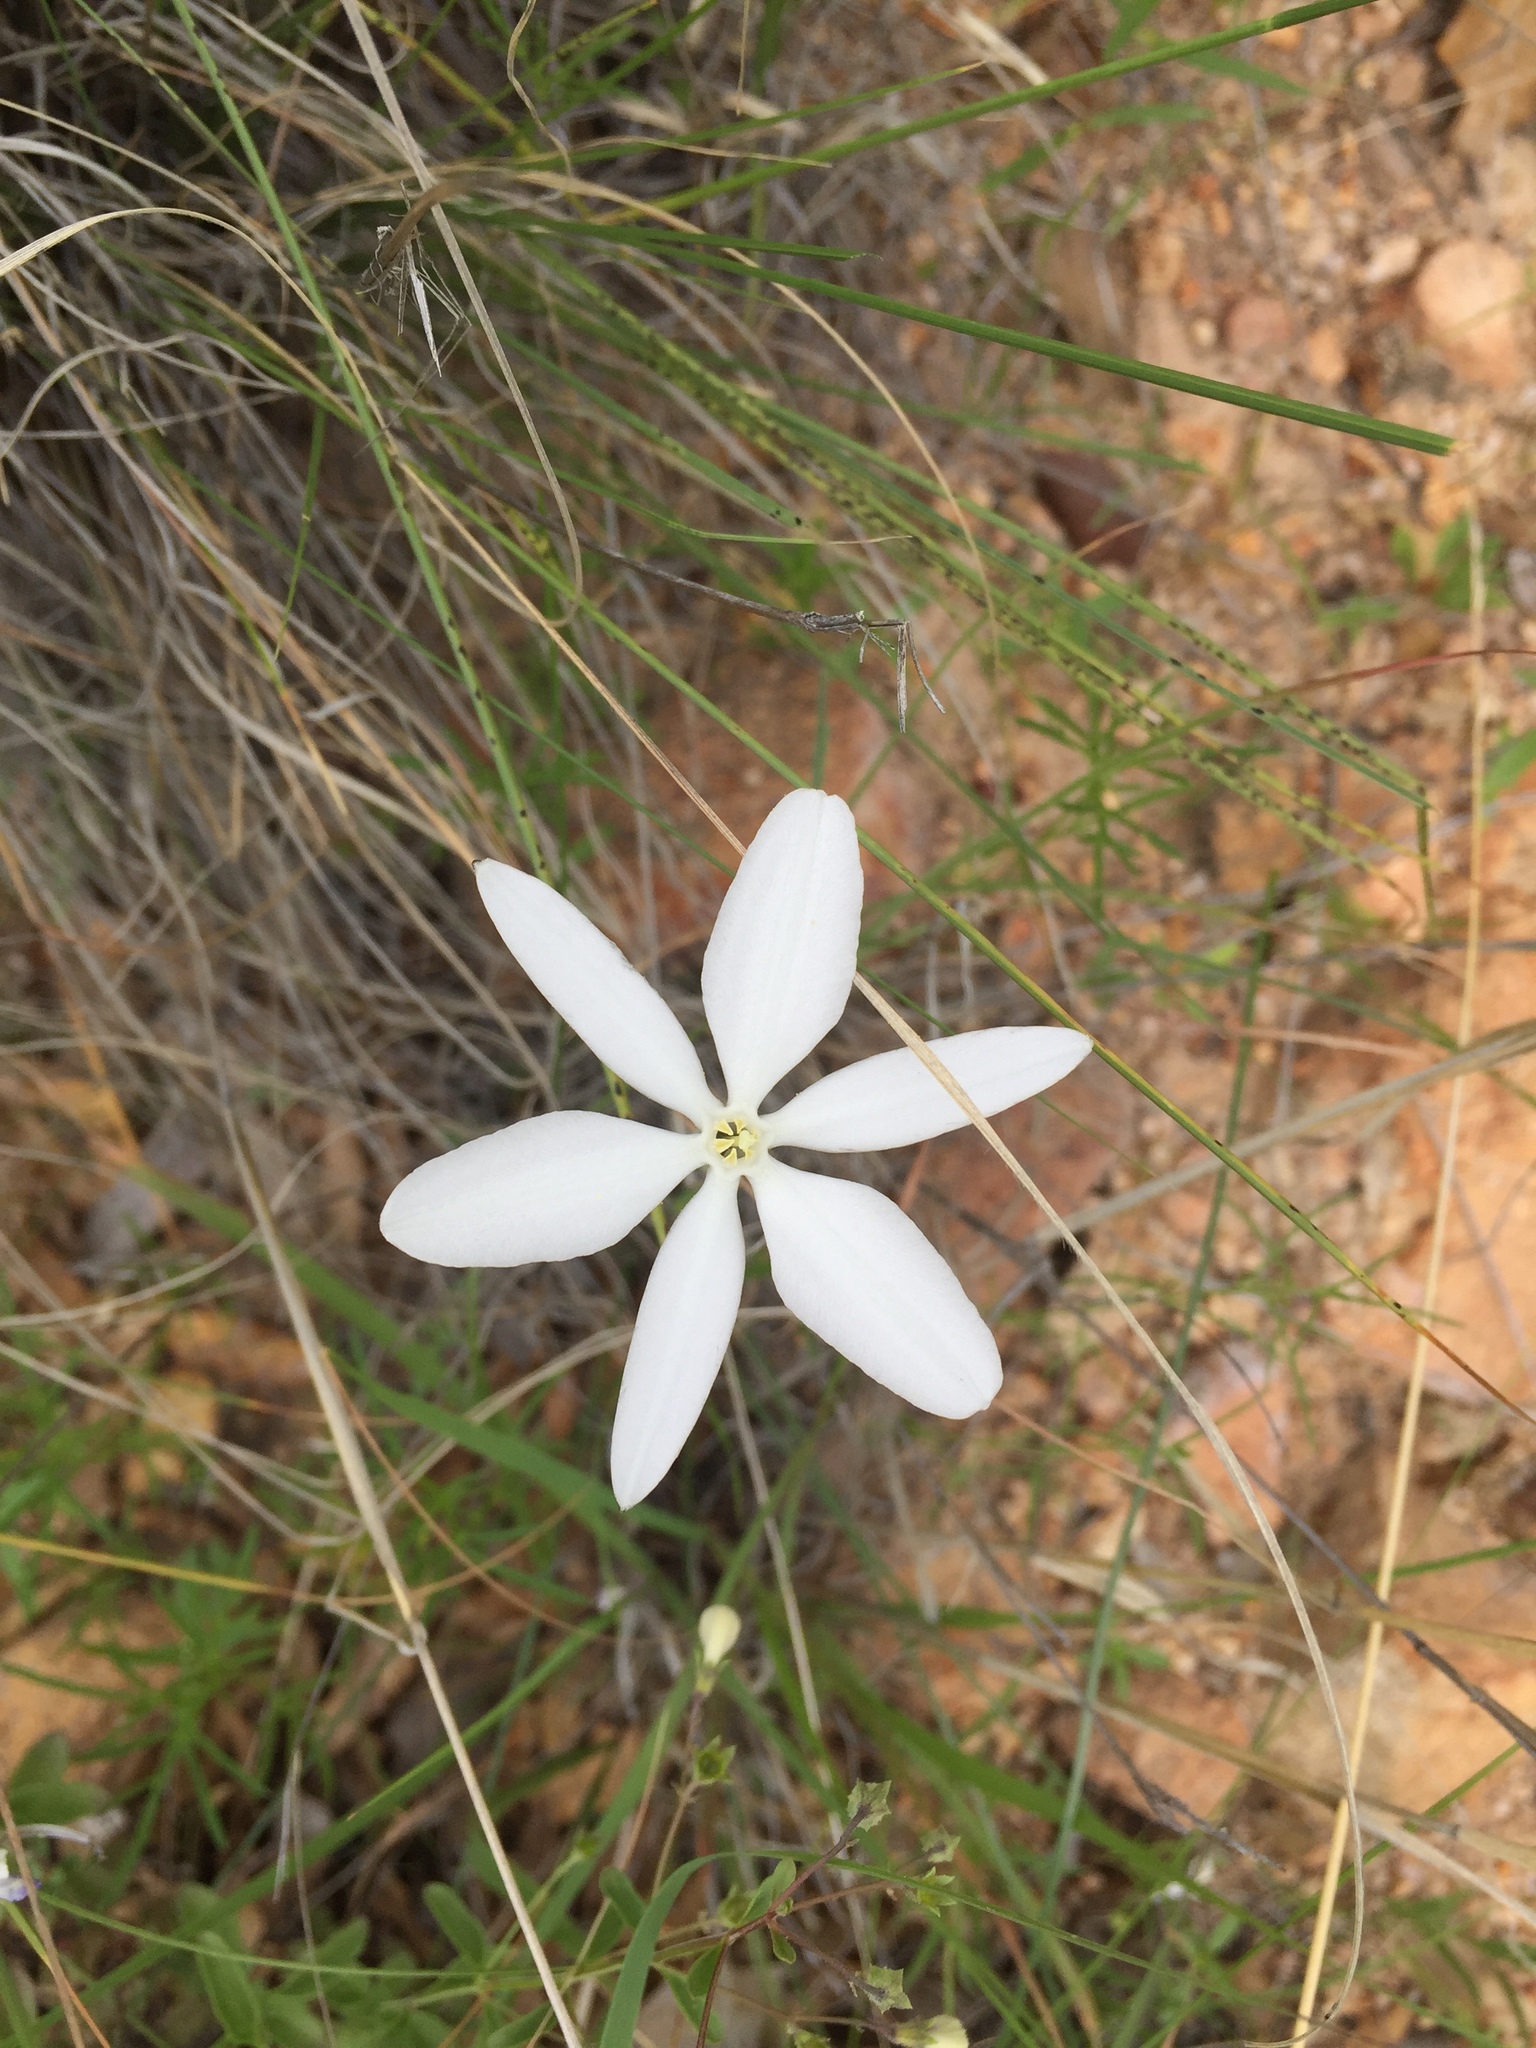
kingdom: Plantae
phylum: Tracheophyta
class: Liliopsida
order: Asparagales
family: Asparagaceae
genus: Milla
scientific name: Milla biflora
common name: Mexican-star
